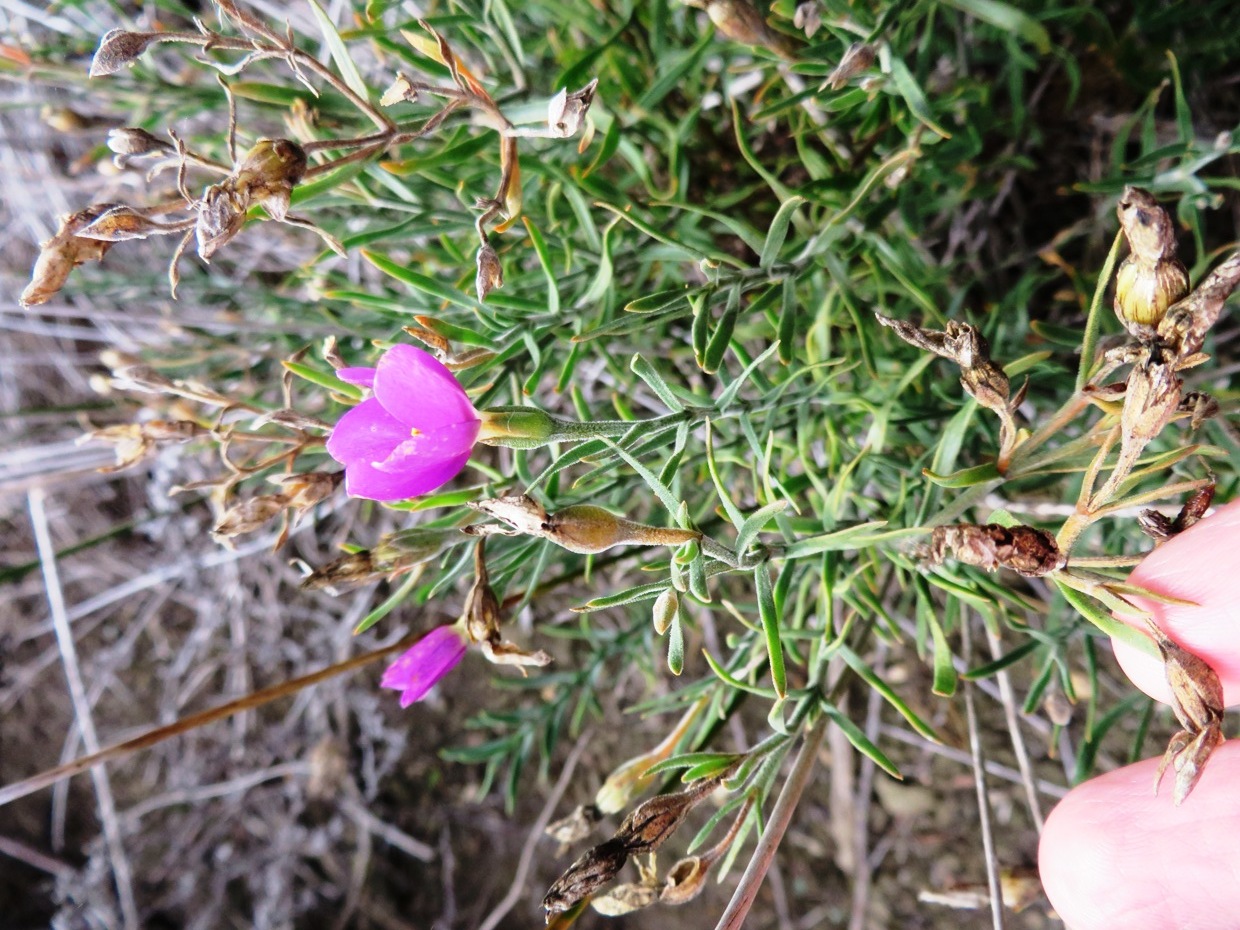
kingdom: Plantae
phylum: Tracheophyta
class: Magnoliopsida
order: Gentianales
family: Gentianaceae
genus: Orphium
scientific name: Orphium frutescens
